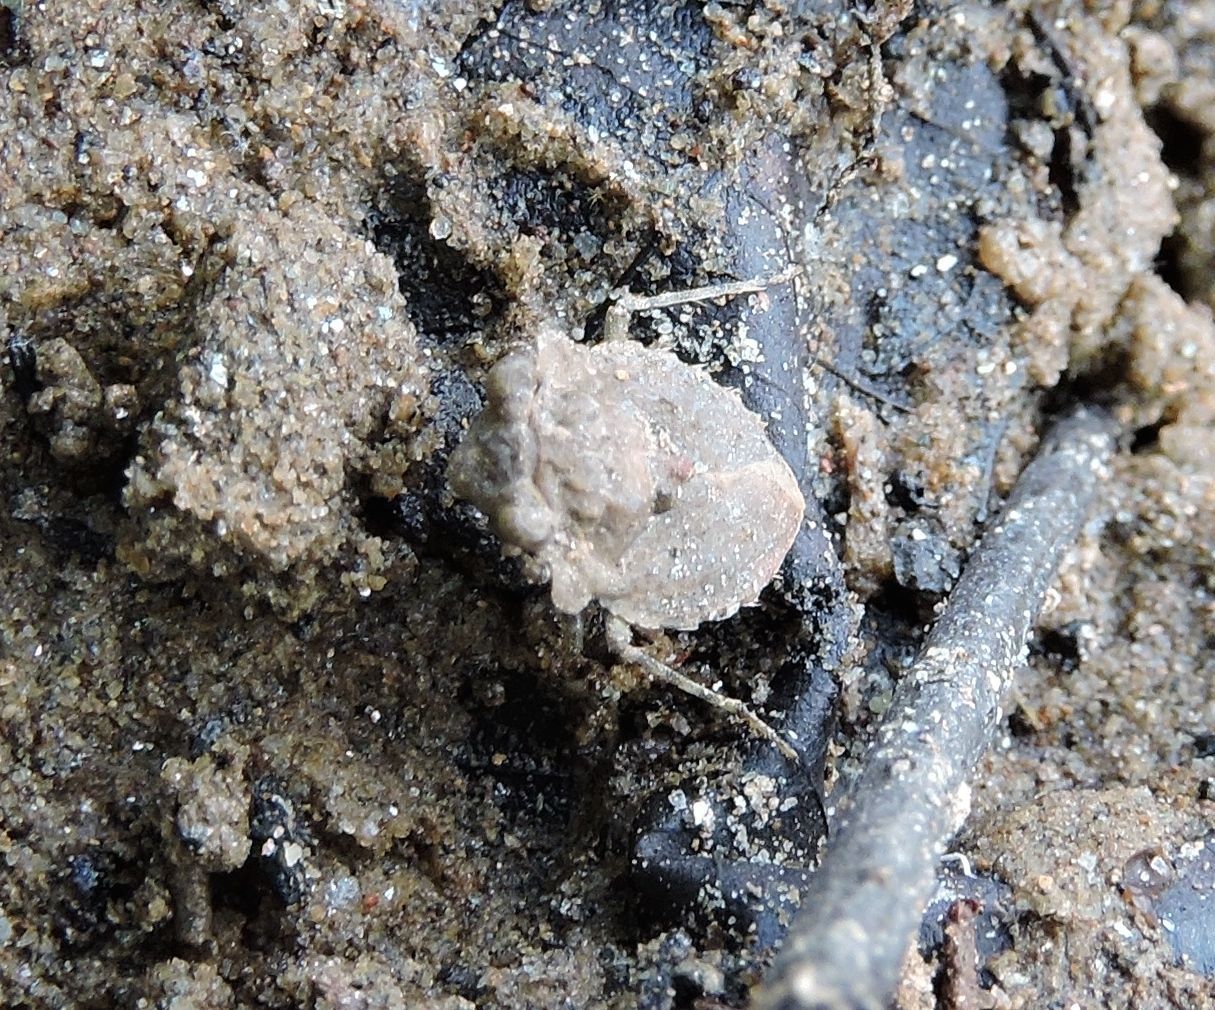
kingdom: Animalia
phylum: Arthropoda
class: Insecta
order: Hemiptera
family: Gelastocoridae
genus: Gelastocoris
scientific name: Gelastocoris oculatus
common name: Toad bug
